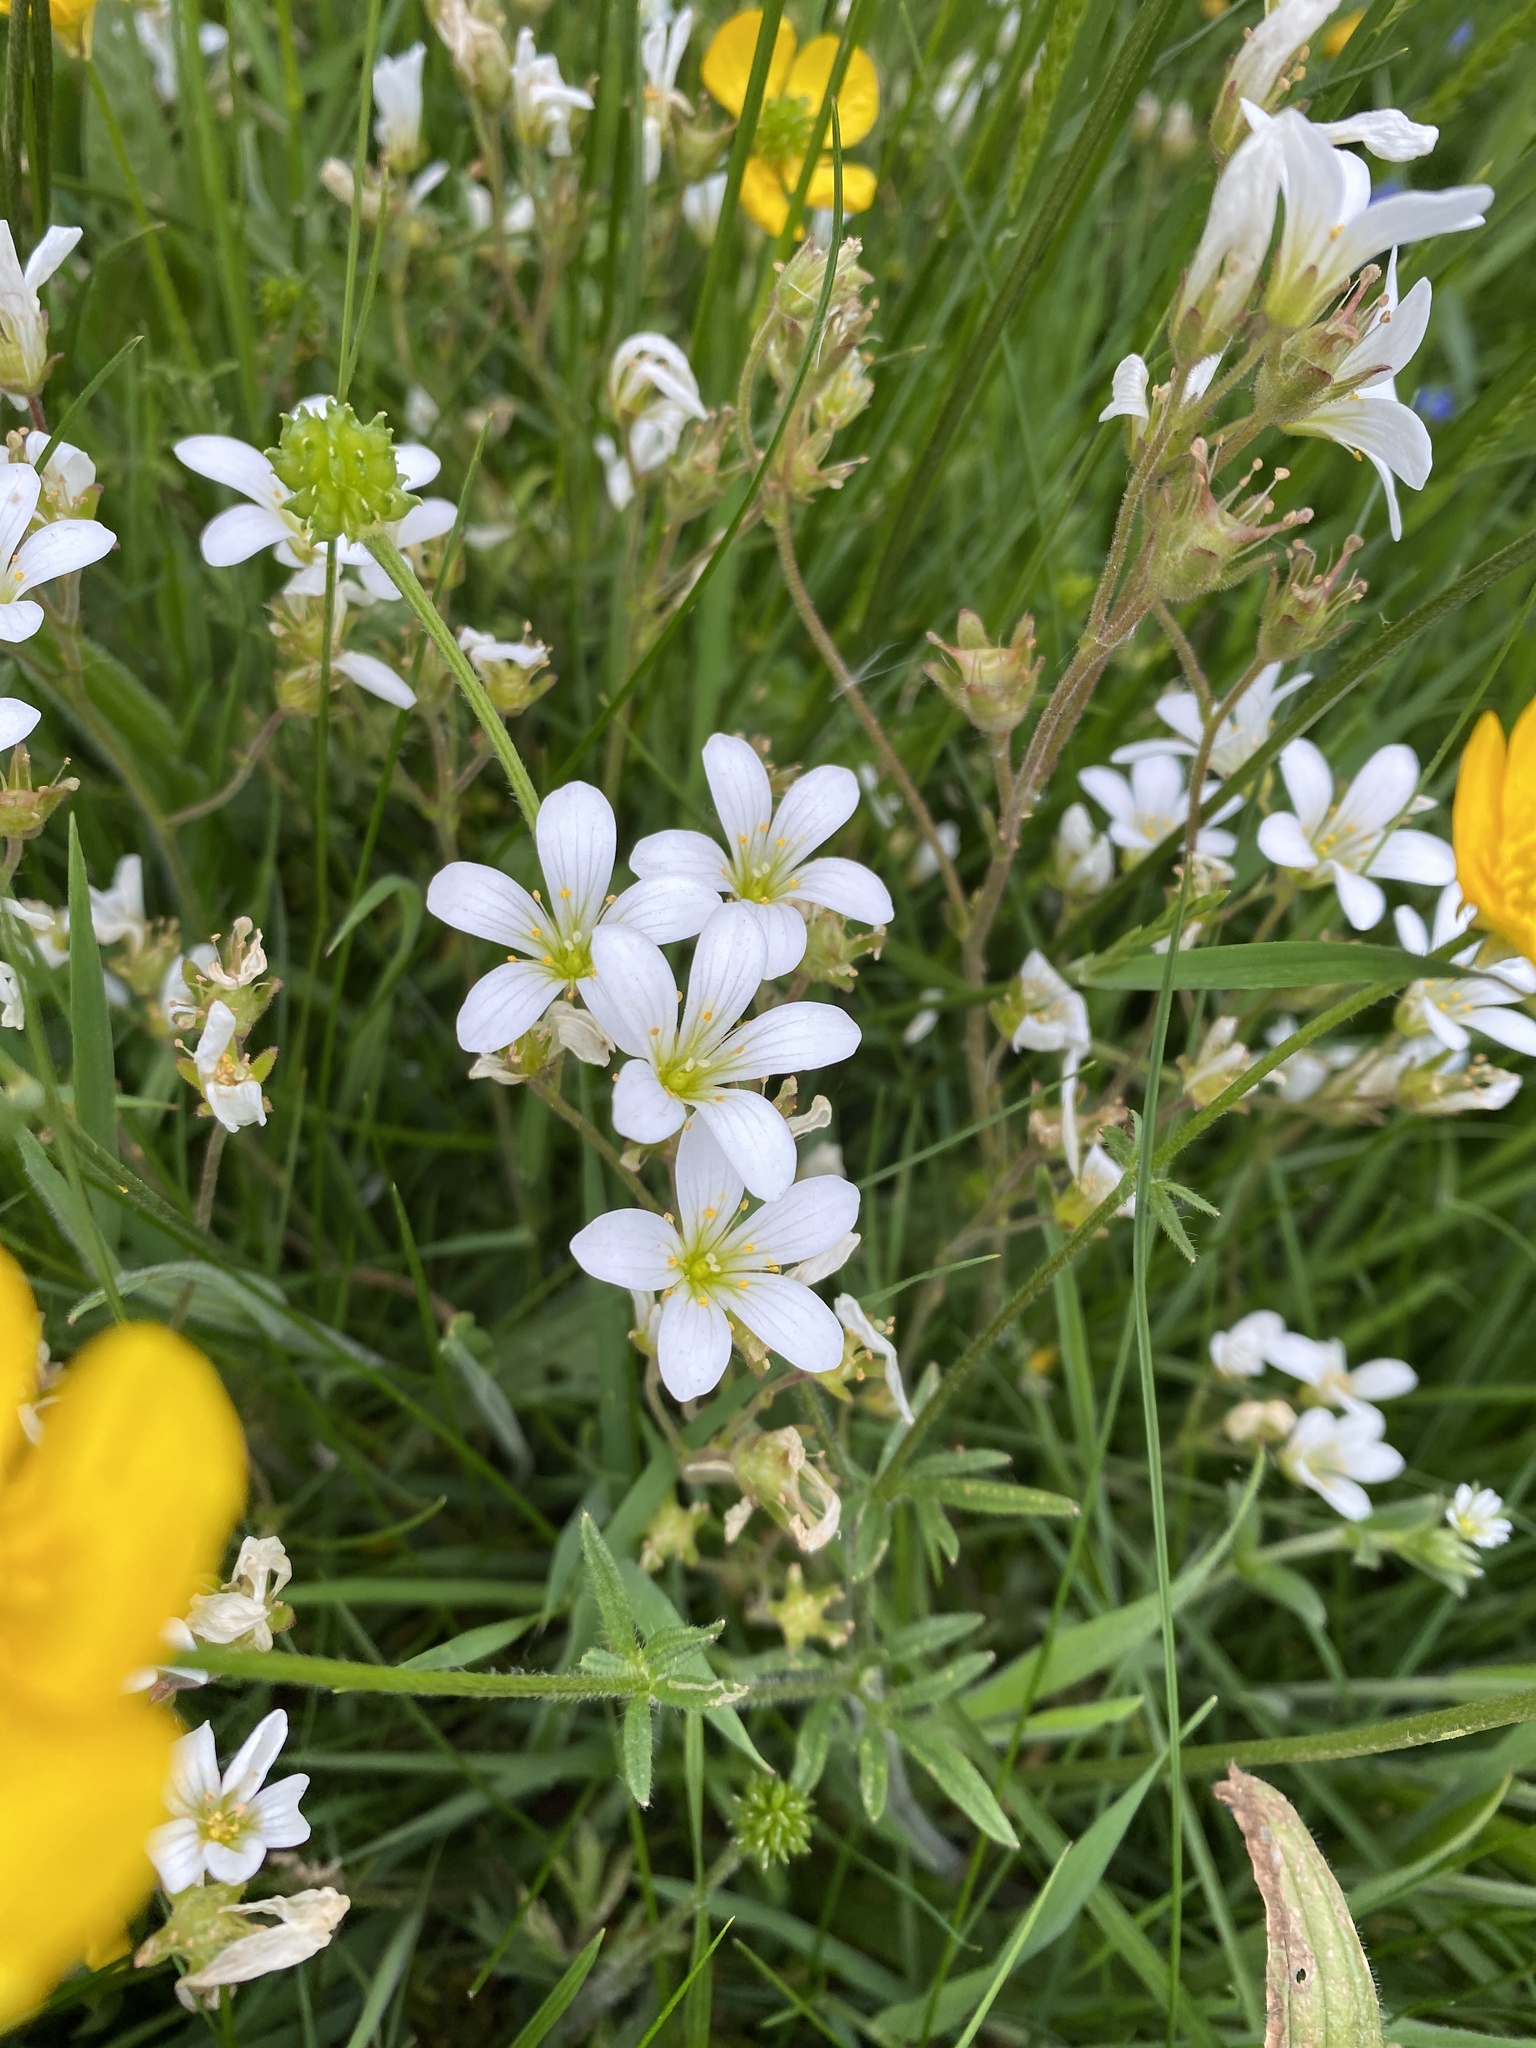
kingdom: Plantae
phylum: Tracheophyta
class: Magnoliopsida
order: Saxifragales
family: Saxifragaceae
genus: Saxifraga
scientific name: Saxifraga granulata
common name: Meadow saxifrage
